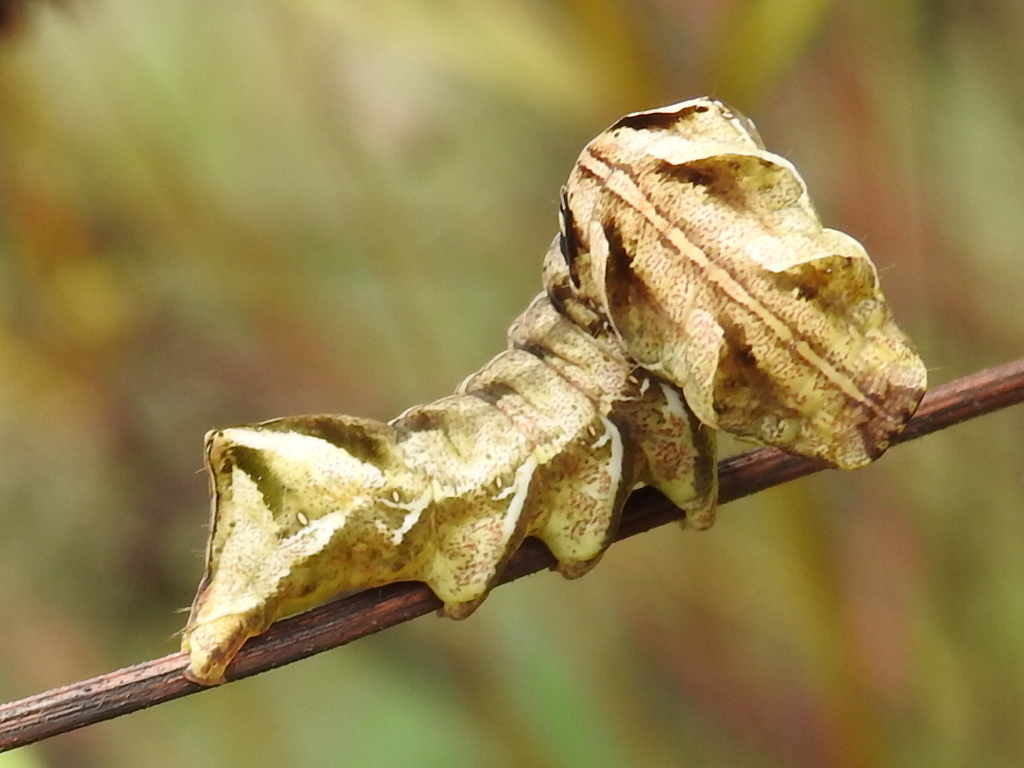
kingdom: Animalia
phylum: Arthropoda
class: Insecta
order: Lepidoptera
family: Noctuidae
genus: Cirrhophanus
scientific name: Cirrhophanus triangulifer
